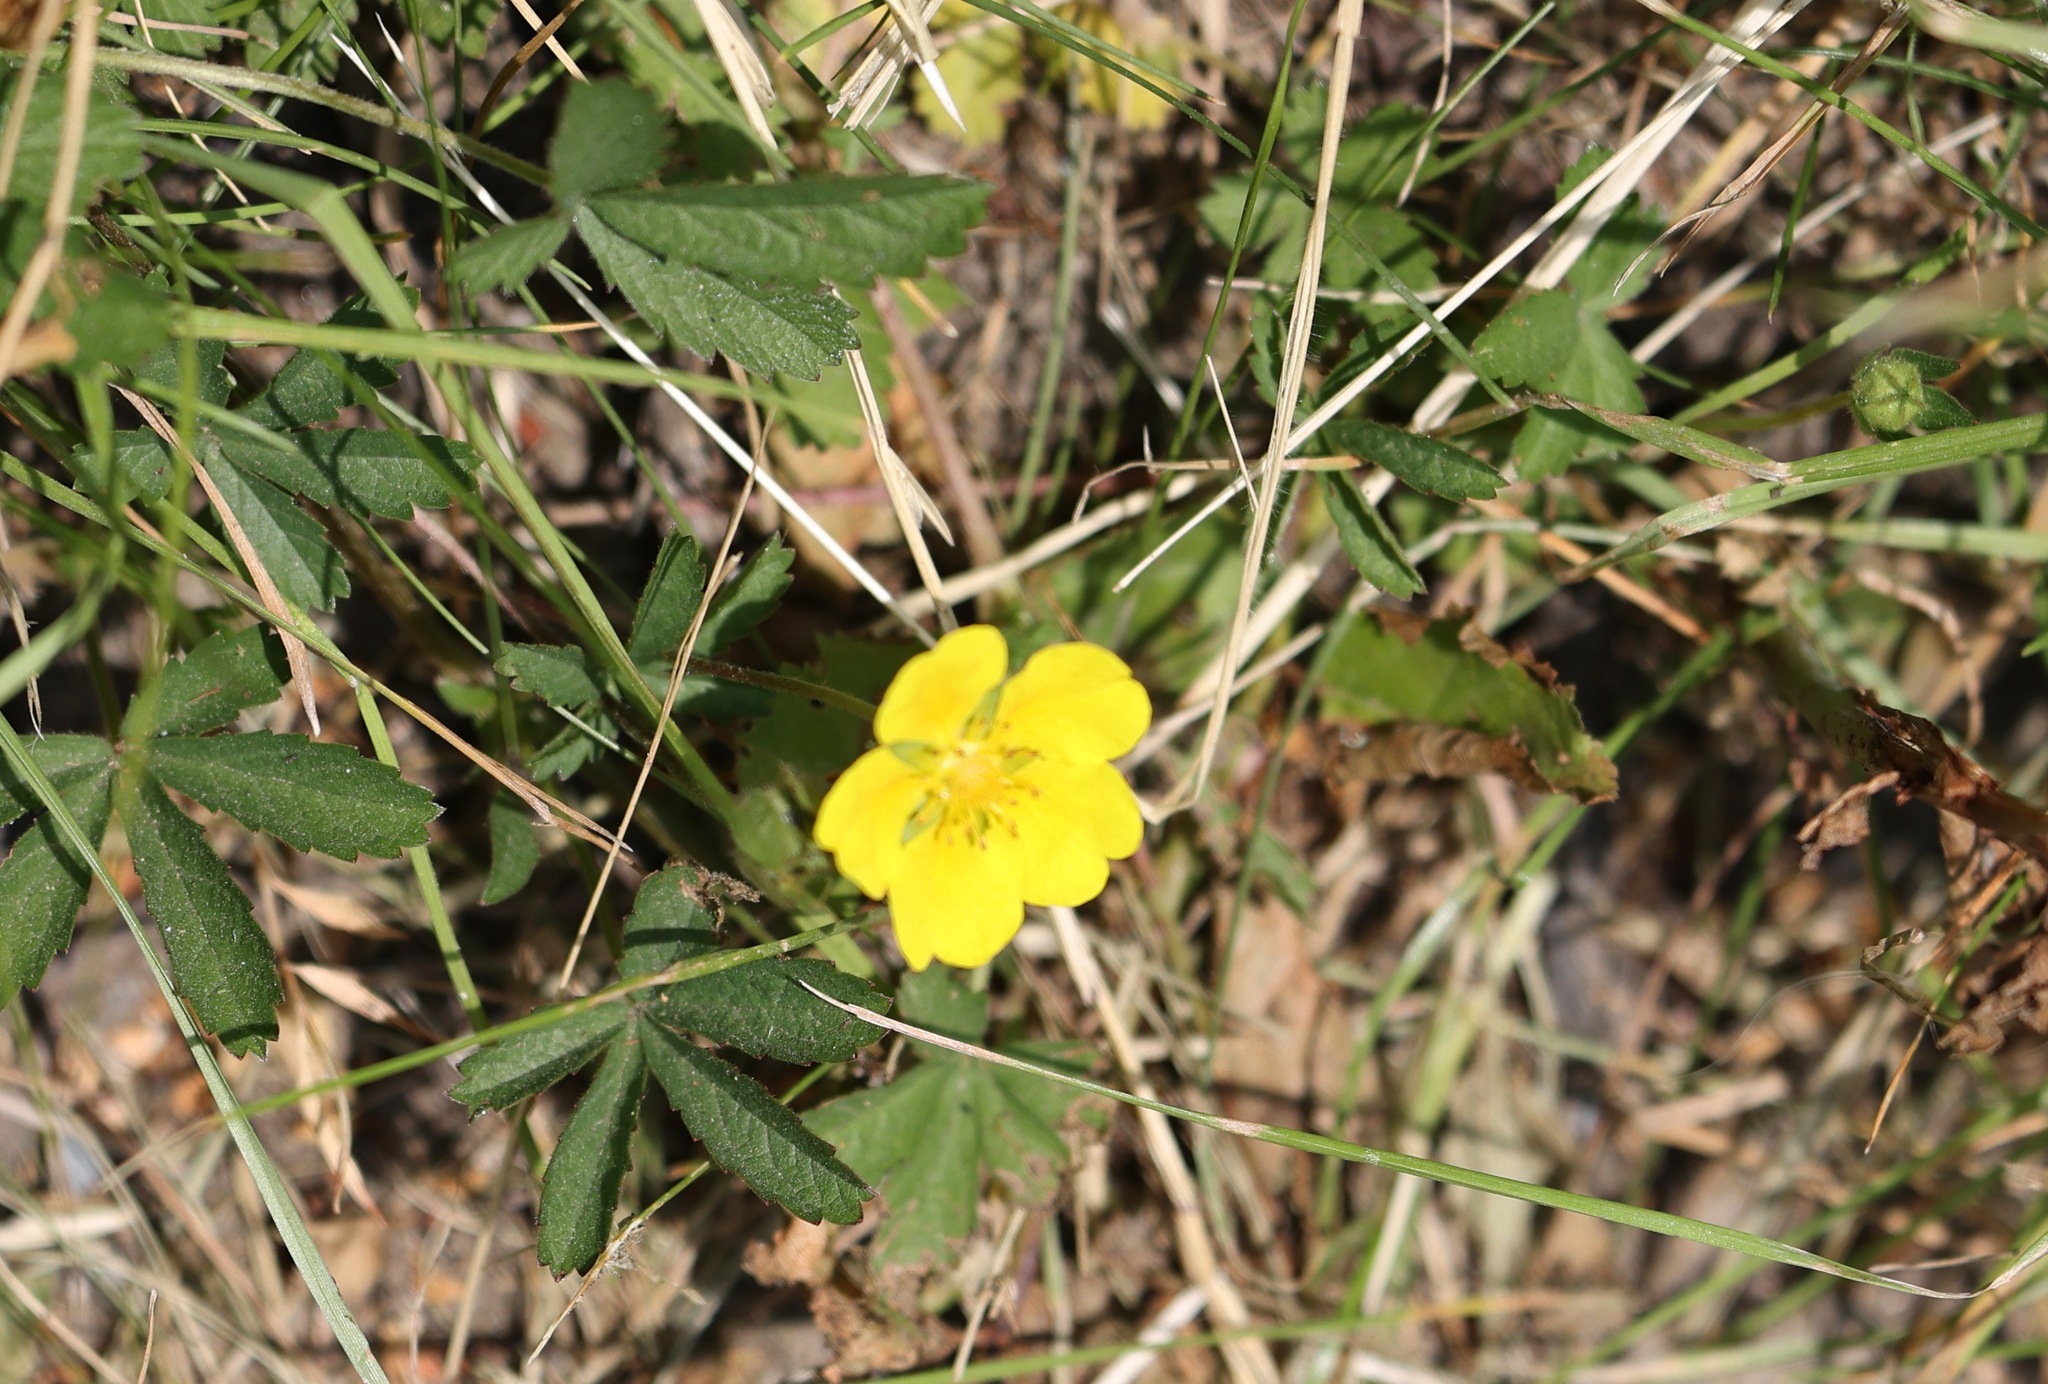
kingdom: Plantae
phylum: Tracheophyta
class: Magnoliopsida
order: Rosales
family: Rosaceae
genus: Potentilla
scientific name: Potentilla reptans
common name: Creeping cinquefoil
